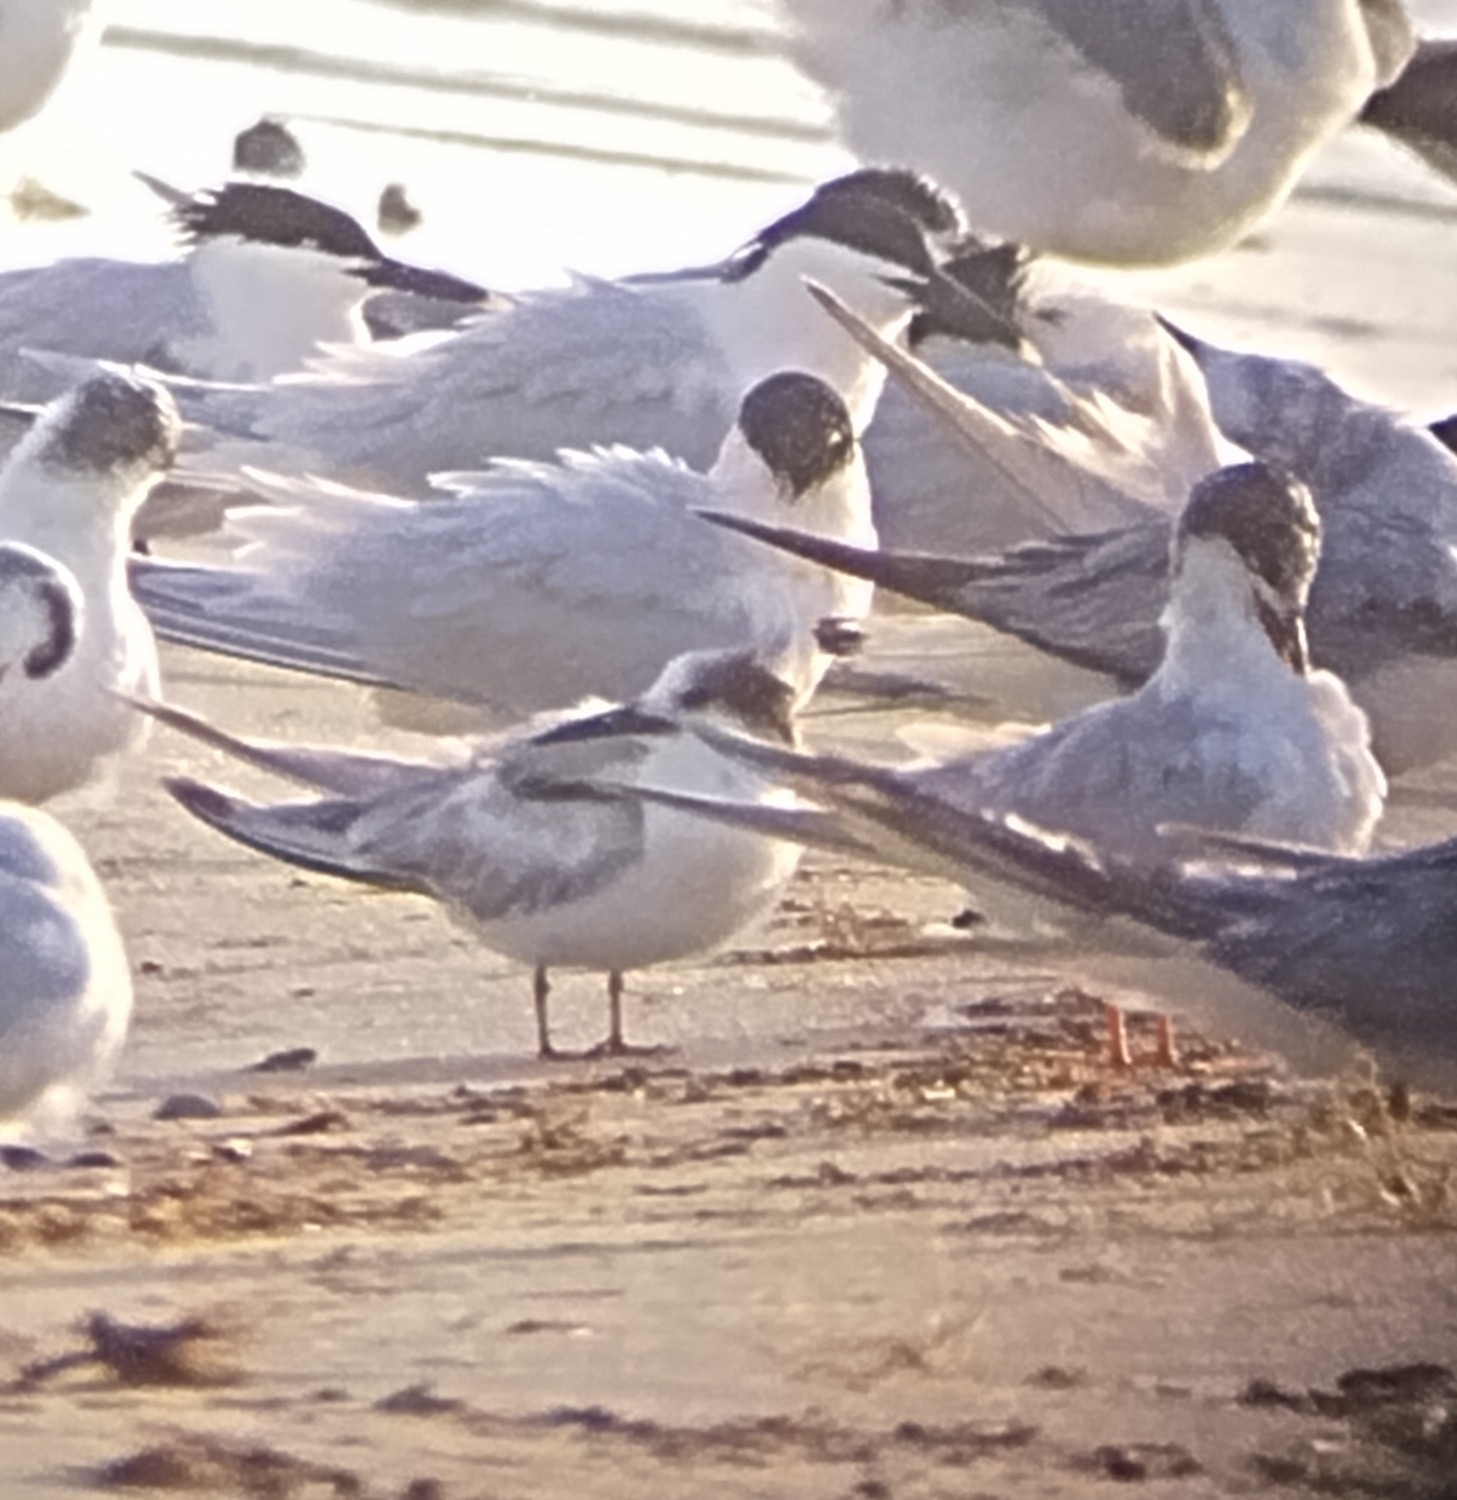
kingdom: Animalia
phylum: Chordata
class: Aves
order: Charadriiformes
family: Laridae
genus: Sterna
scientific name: Sterna hirundo
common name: Common tern
